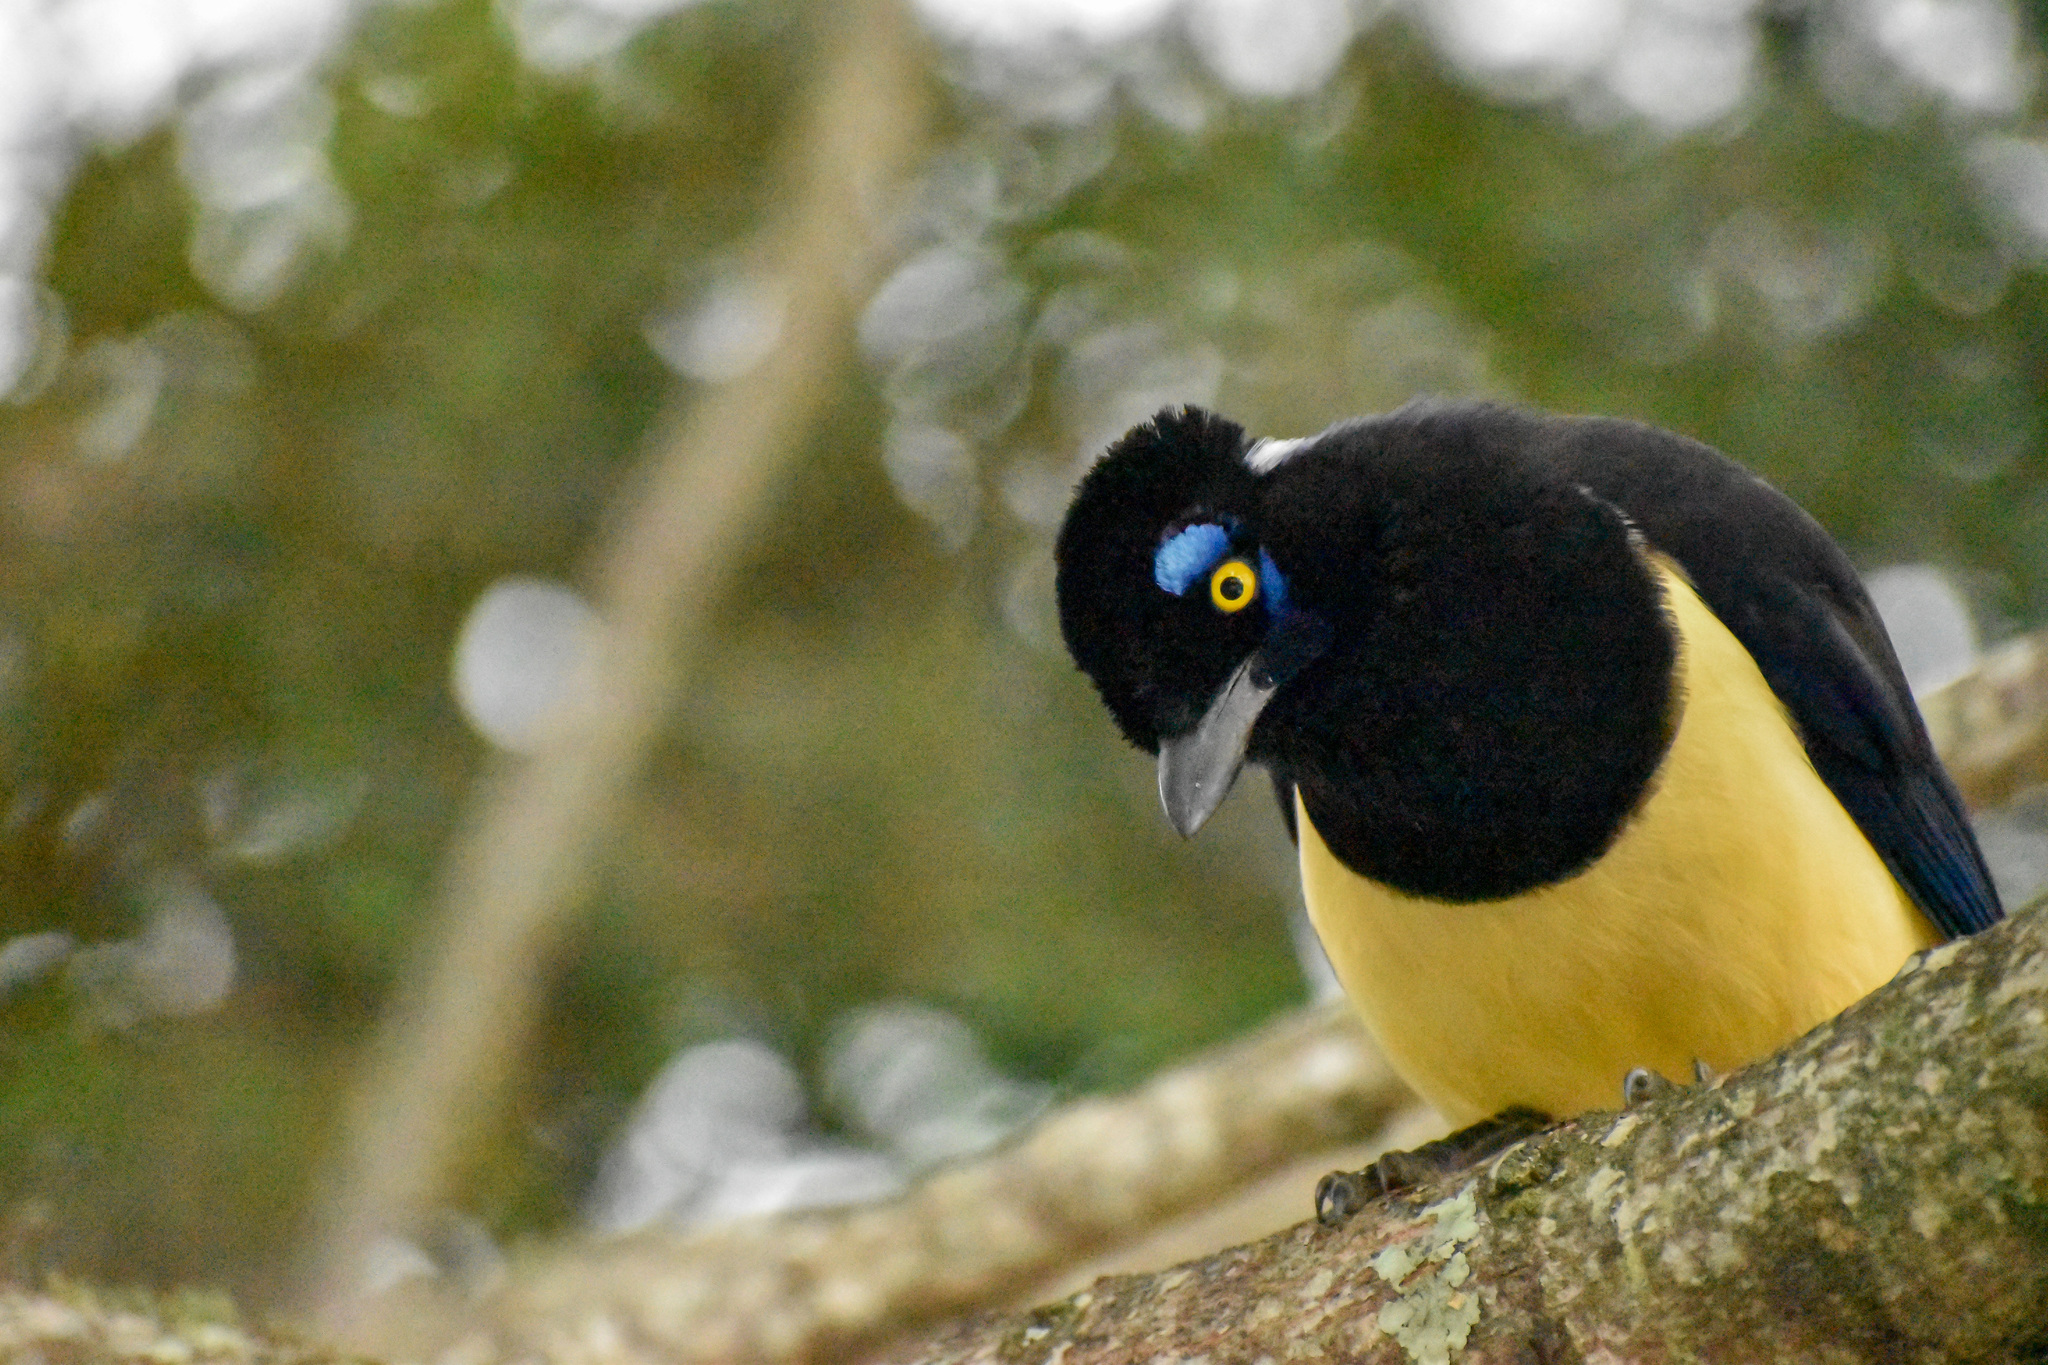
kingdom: Animalia
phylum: Chordata
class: Aves
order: Passeriformes
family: Corvidae
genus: Cyanocorax
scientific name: Cyanocorax chrysops
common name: Plush-crested jay
